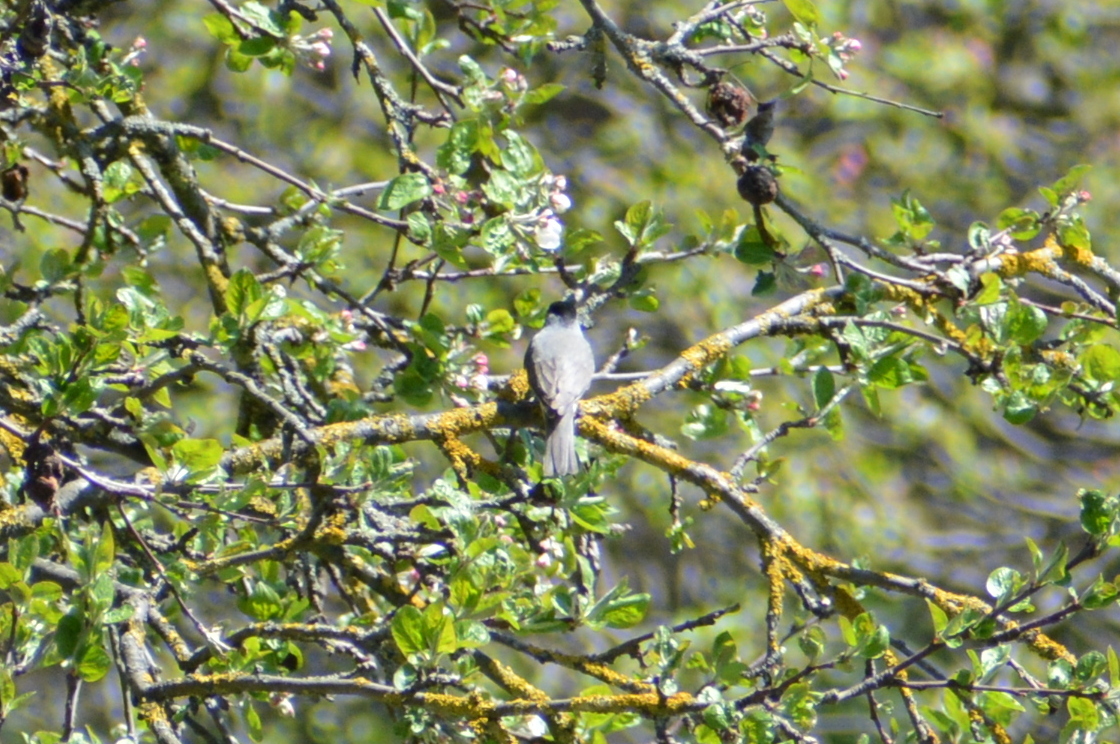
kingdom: Animalia
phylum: Chordata
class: Aves
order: Passeriformes
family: Sylviidae
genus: Sylvia
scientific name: Sylvia atricapilla
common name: Eurasian blackcap
